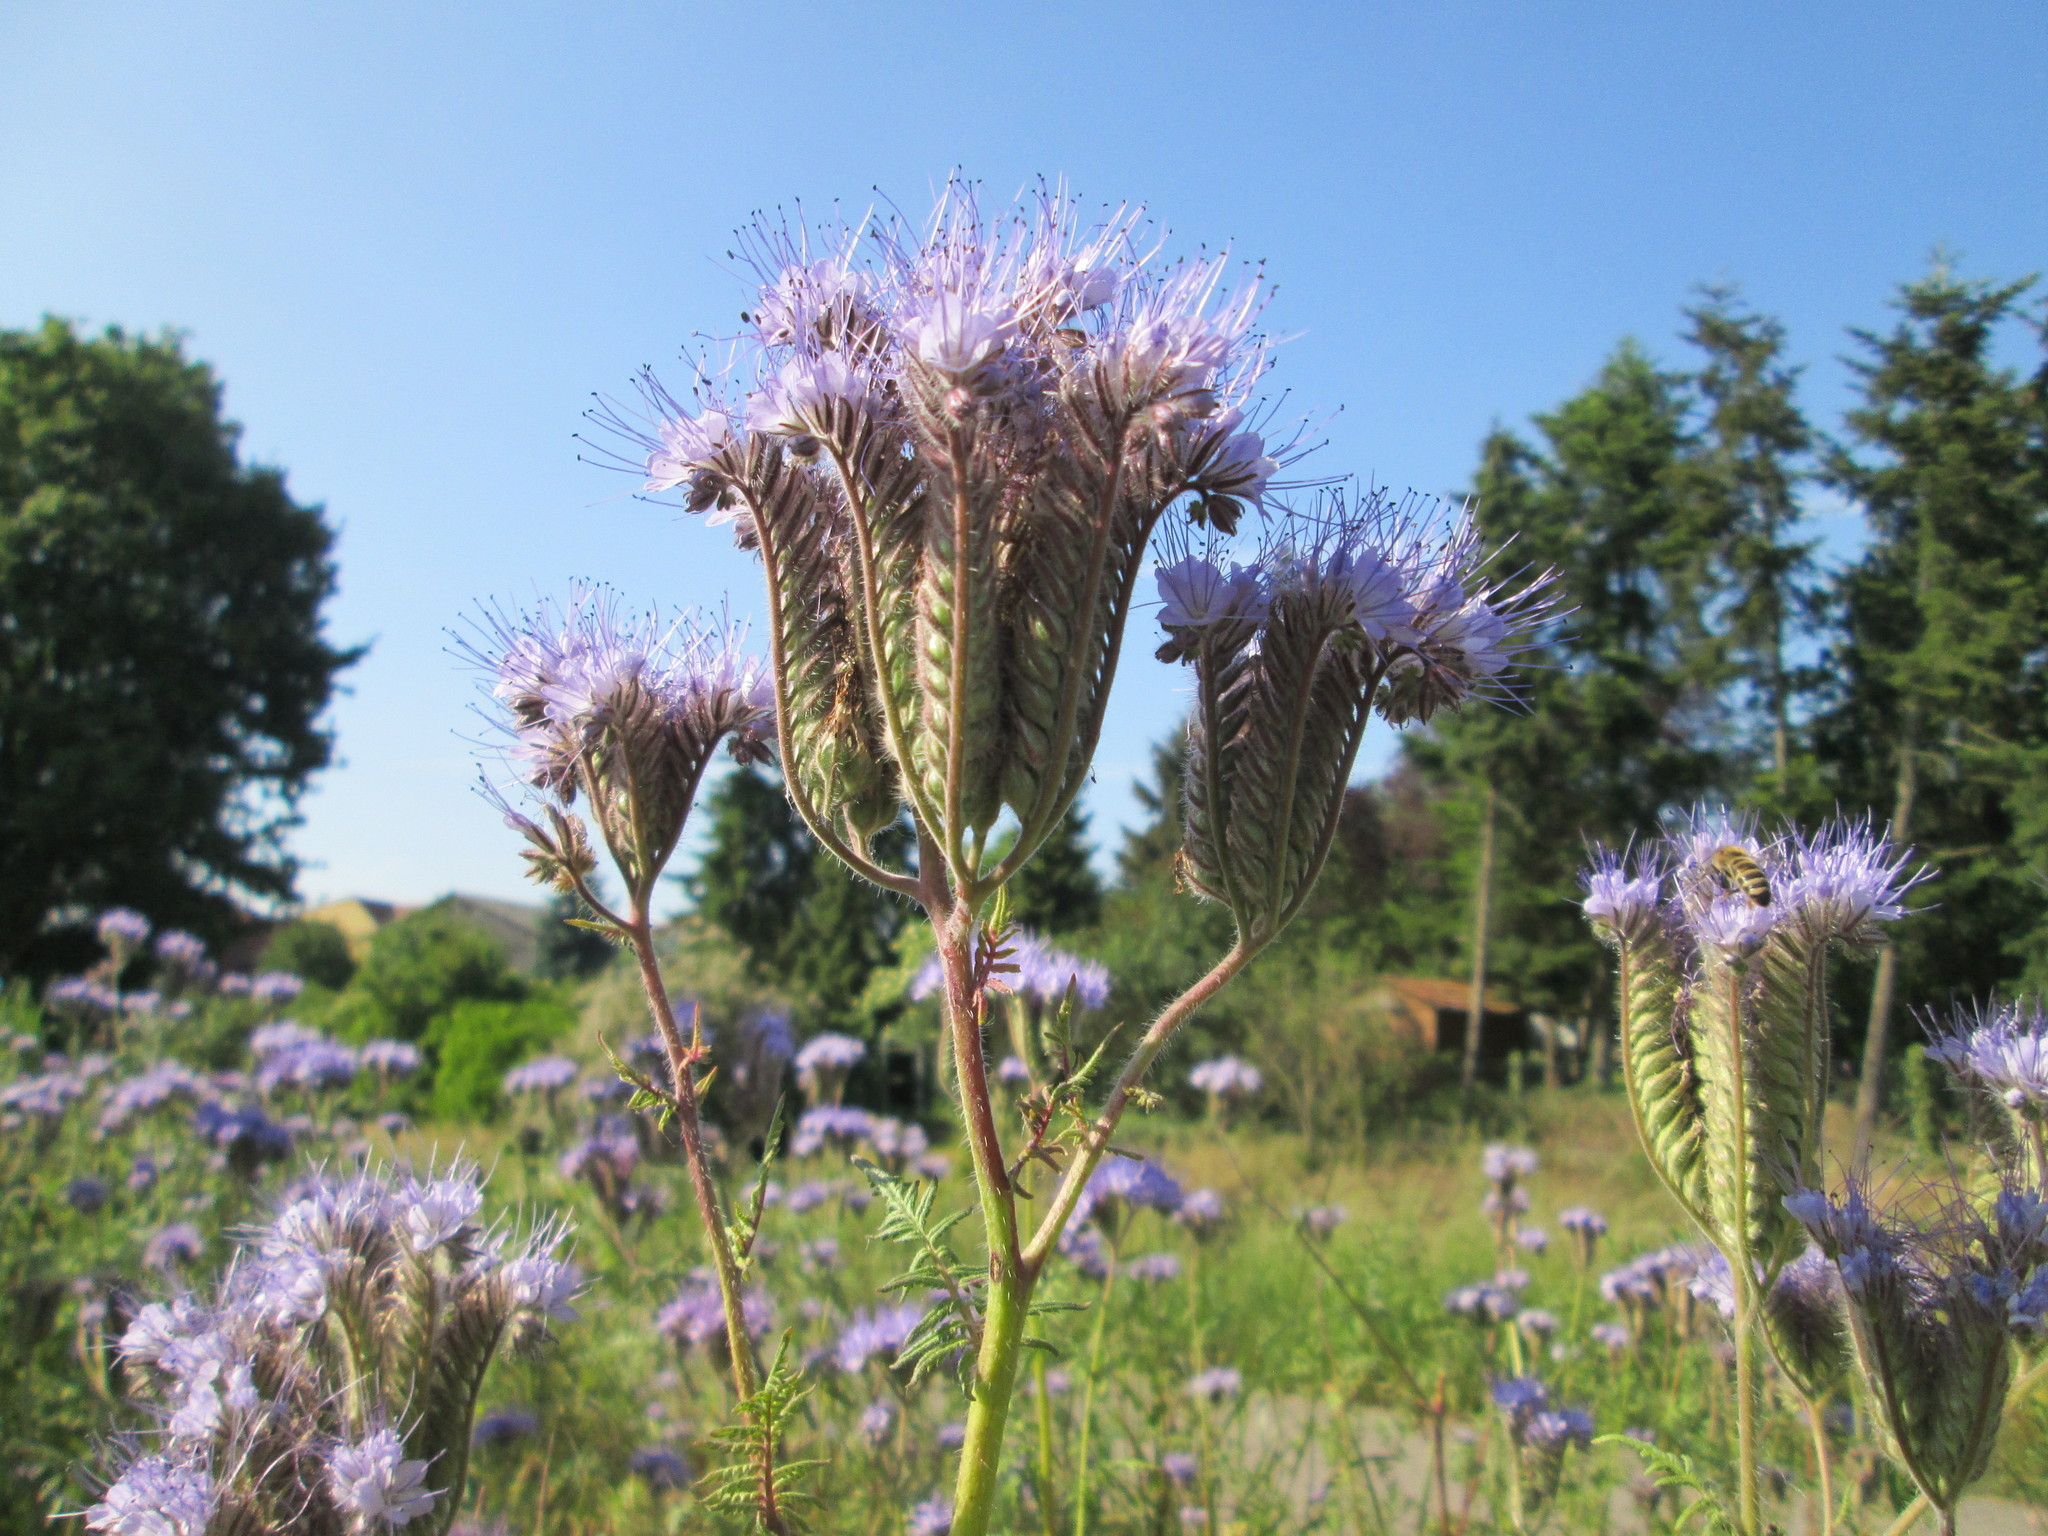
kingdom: Plantae
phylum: Tracheophyta
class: Magnoliopsida
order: Boraginales
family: Hydrophyllaceae
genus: Phacelia
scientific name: Phacelia tanacetifolia
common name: Phacelia
